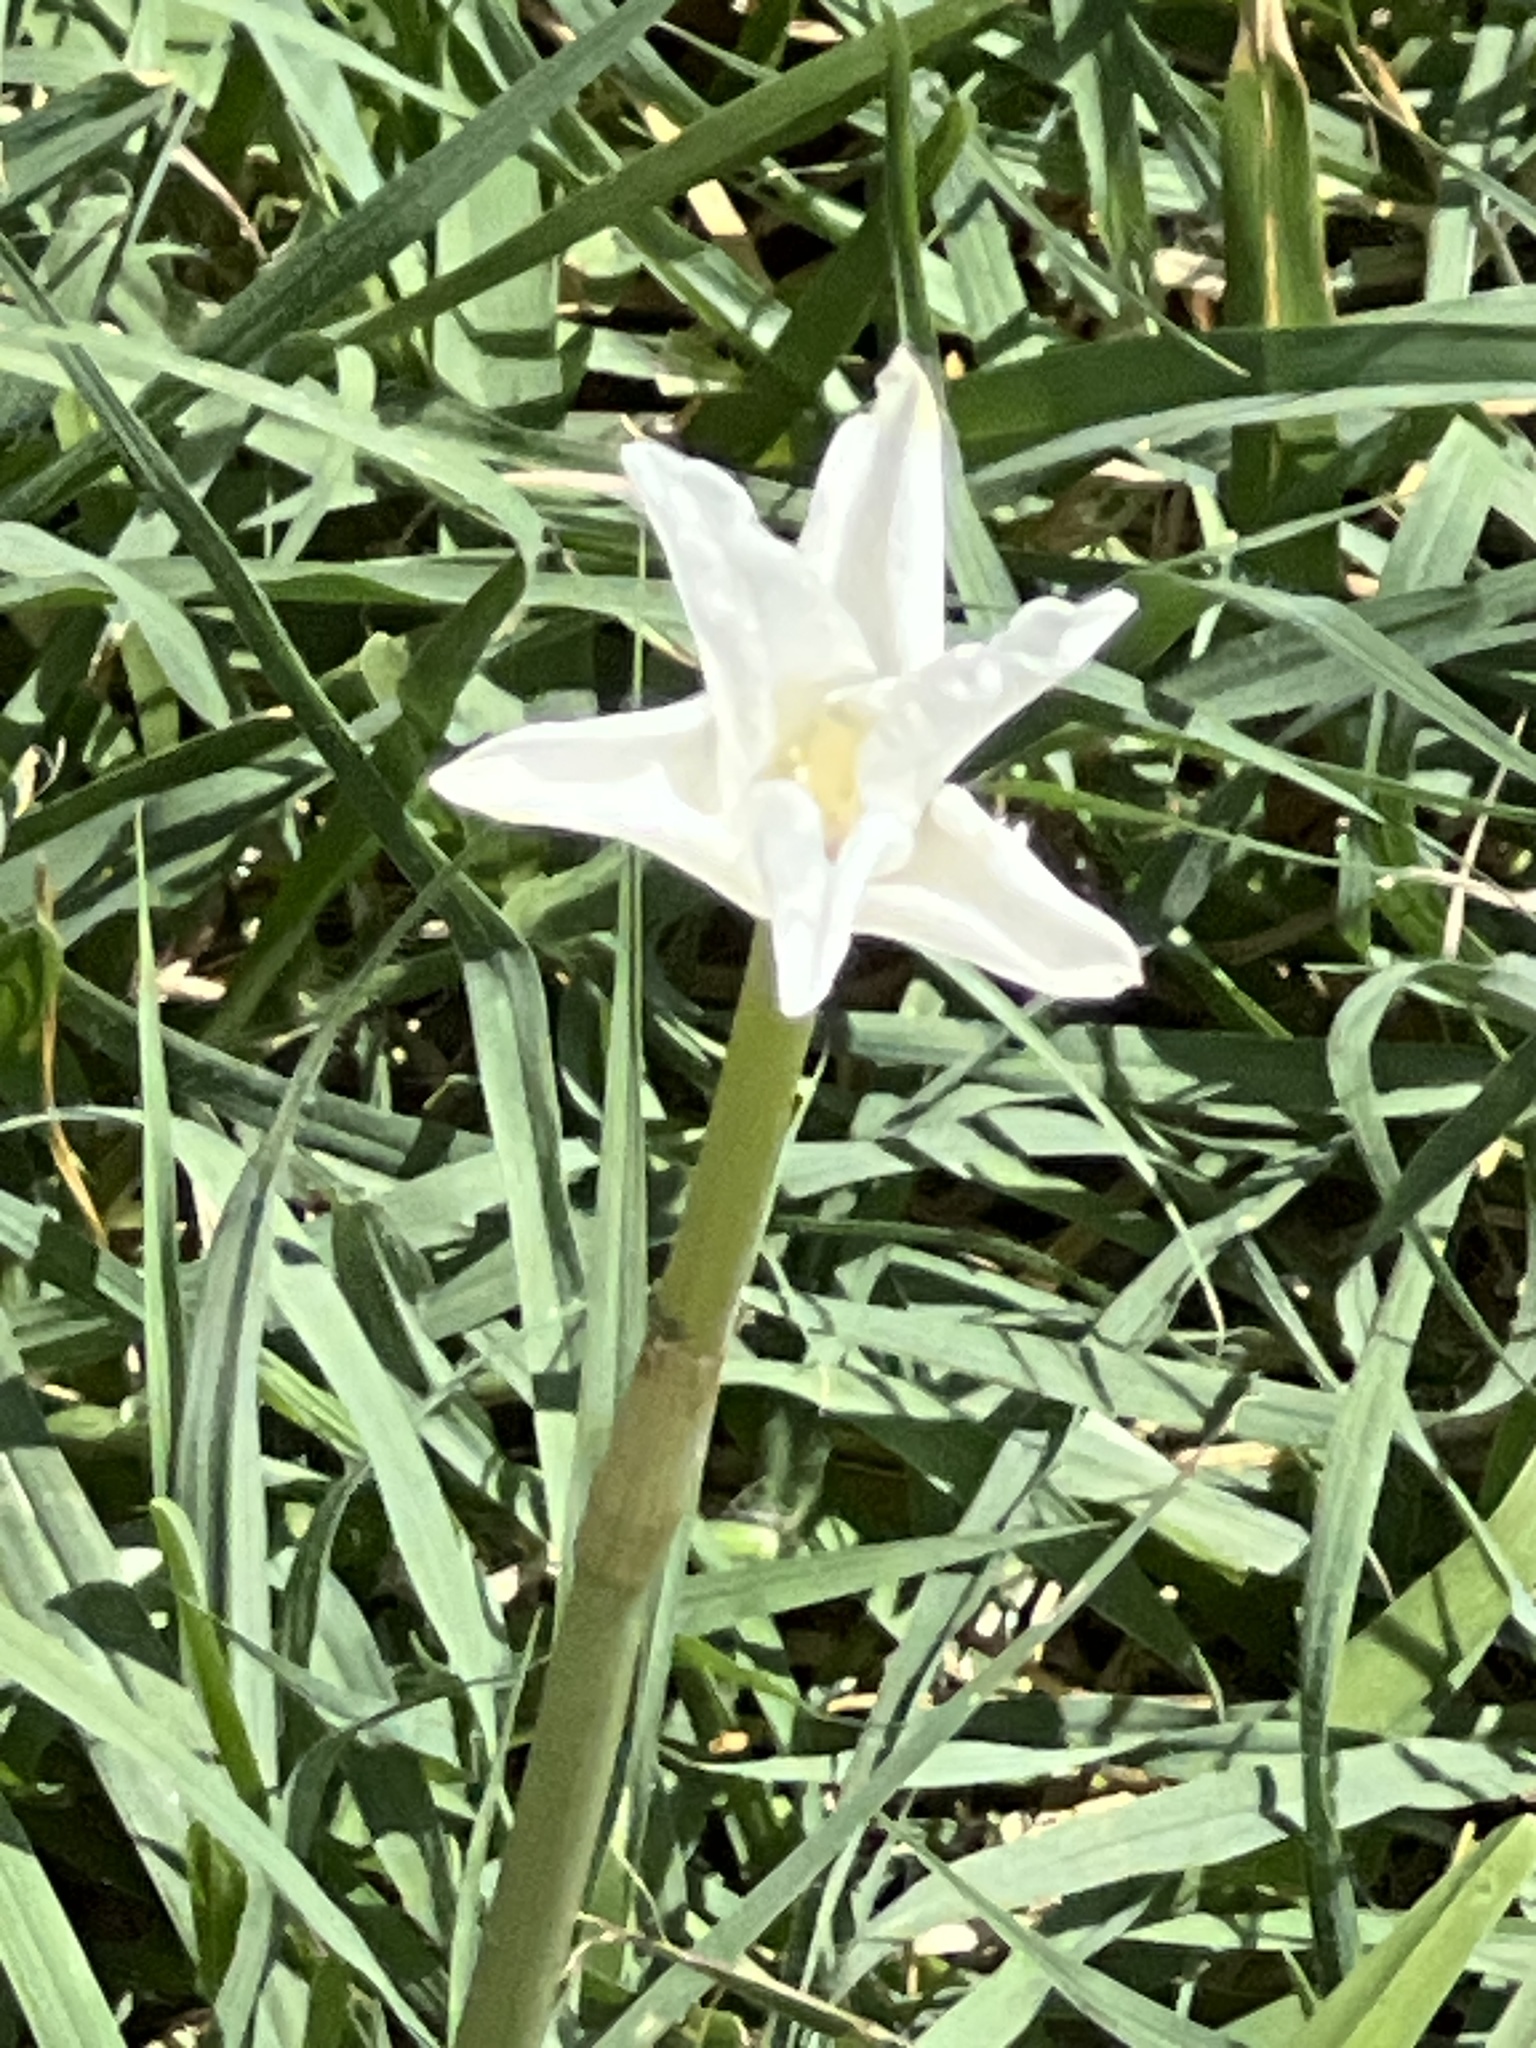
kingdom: Plantae
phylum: Tracheophyta
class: Liliopsida
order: Asparagales
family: Amaryllidaceae
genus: Zephyranthes
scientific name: Zephyranthes chlorosolen
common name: Evening rain-lily
